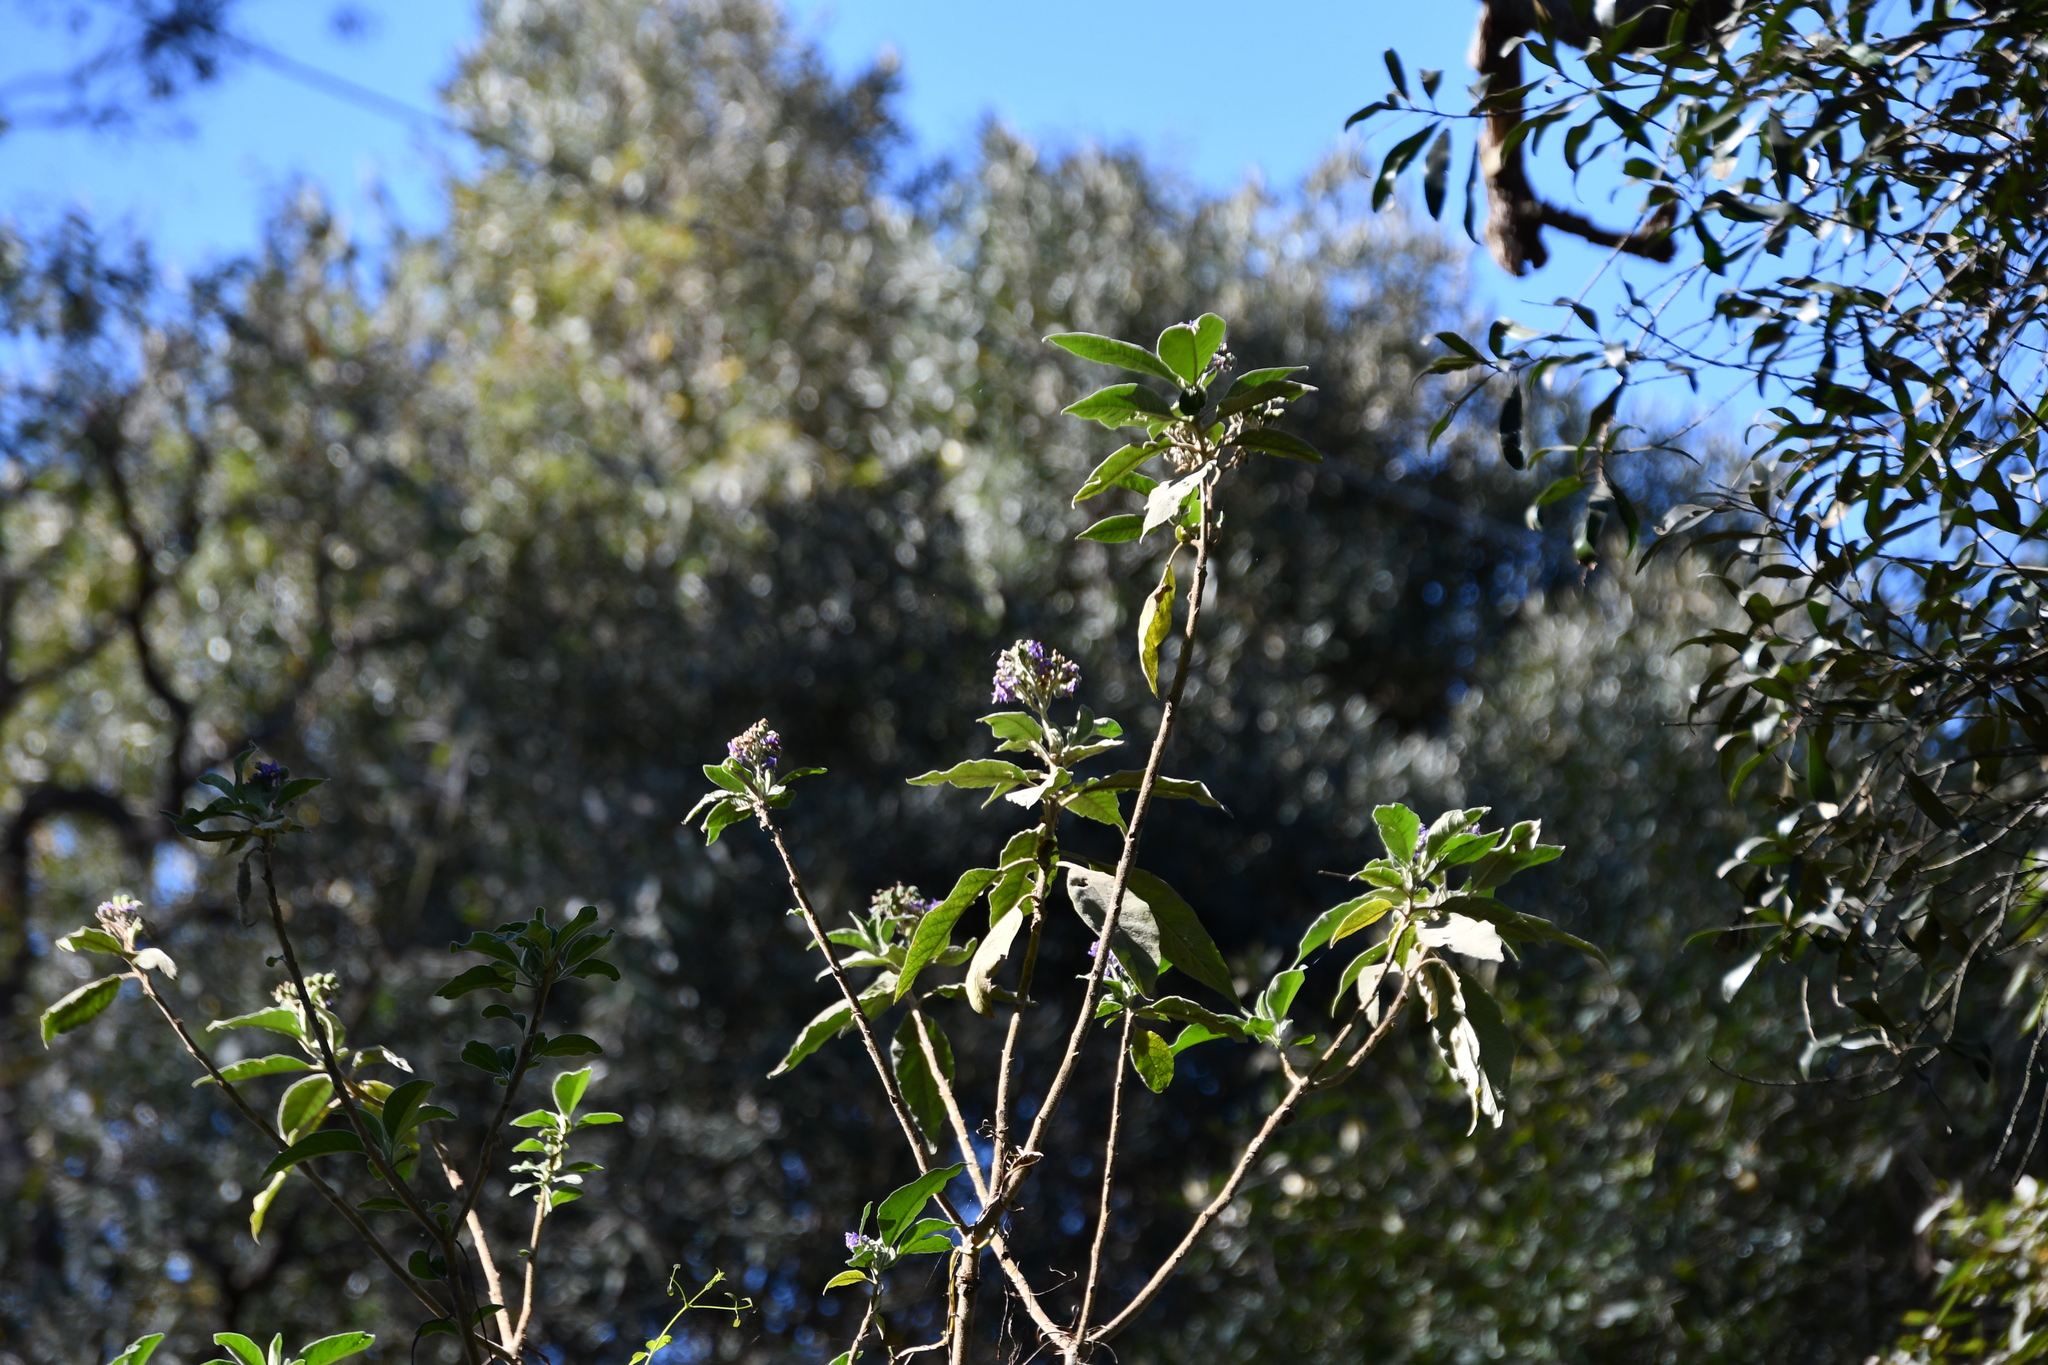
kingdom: Plantae
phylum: Tracheophyta
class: Magnoliopsida
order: Solanales
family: Solanaceae
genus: Solanum
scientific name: Solanum mauritianum
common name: Earleaf nightshade
